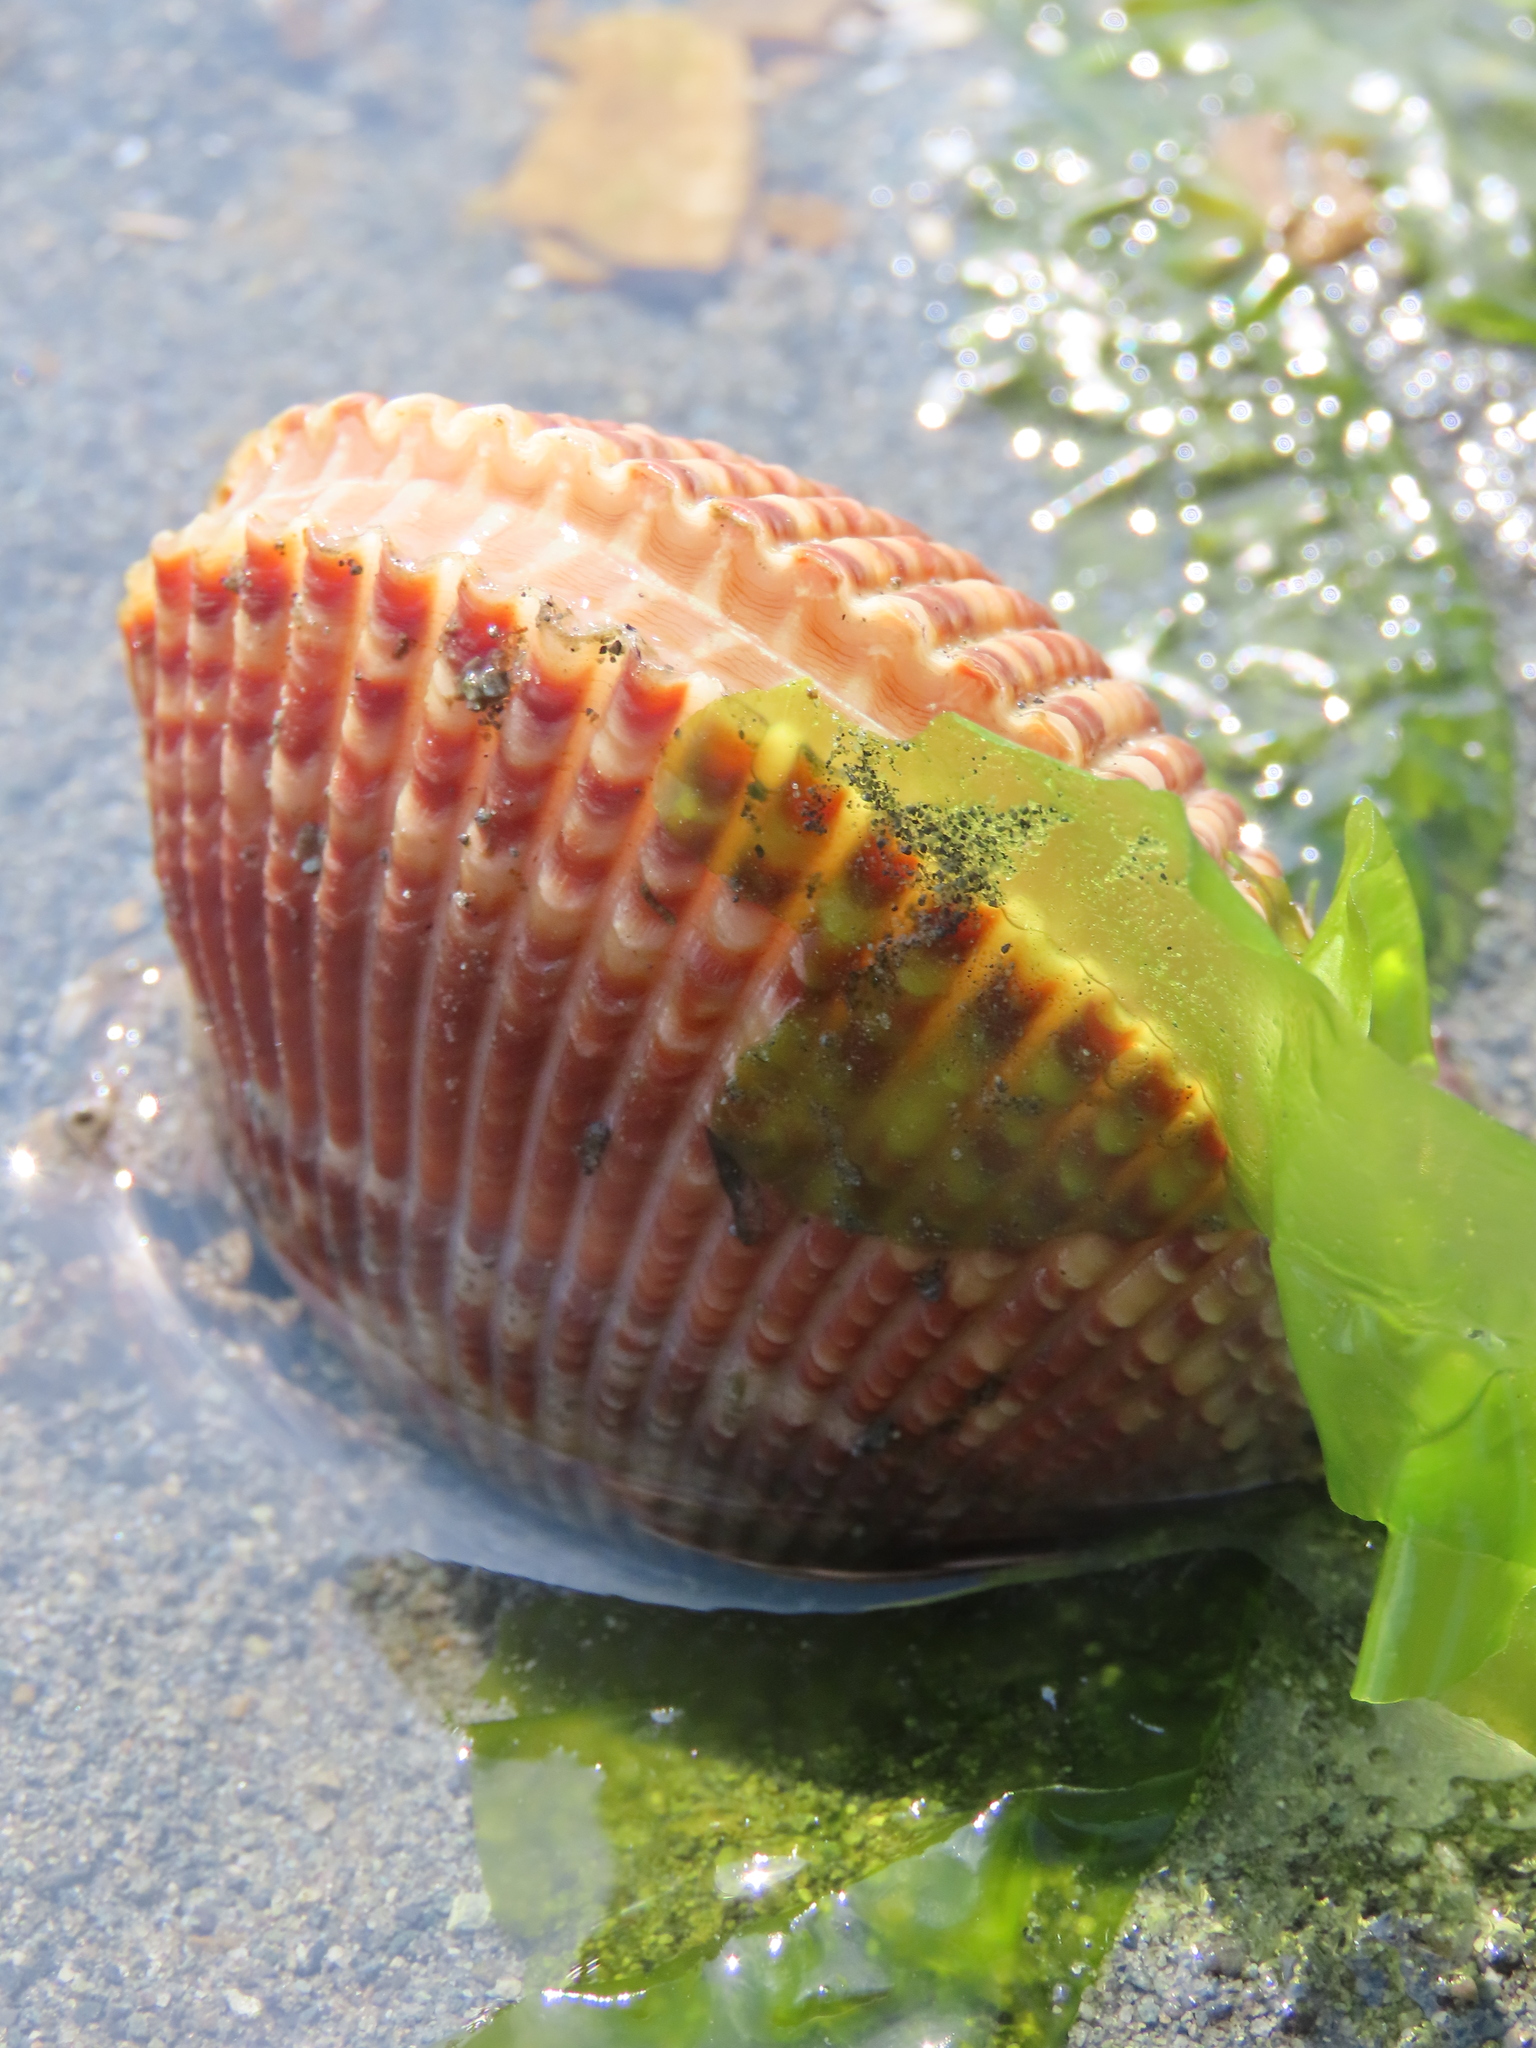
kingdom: Animalia
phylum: Mollusca
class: Bivalvia
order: Cardiida
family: Cardiidae
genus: Clinocardium
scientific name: Clinocardium nuttallii
